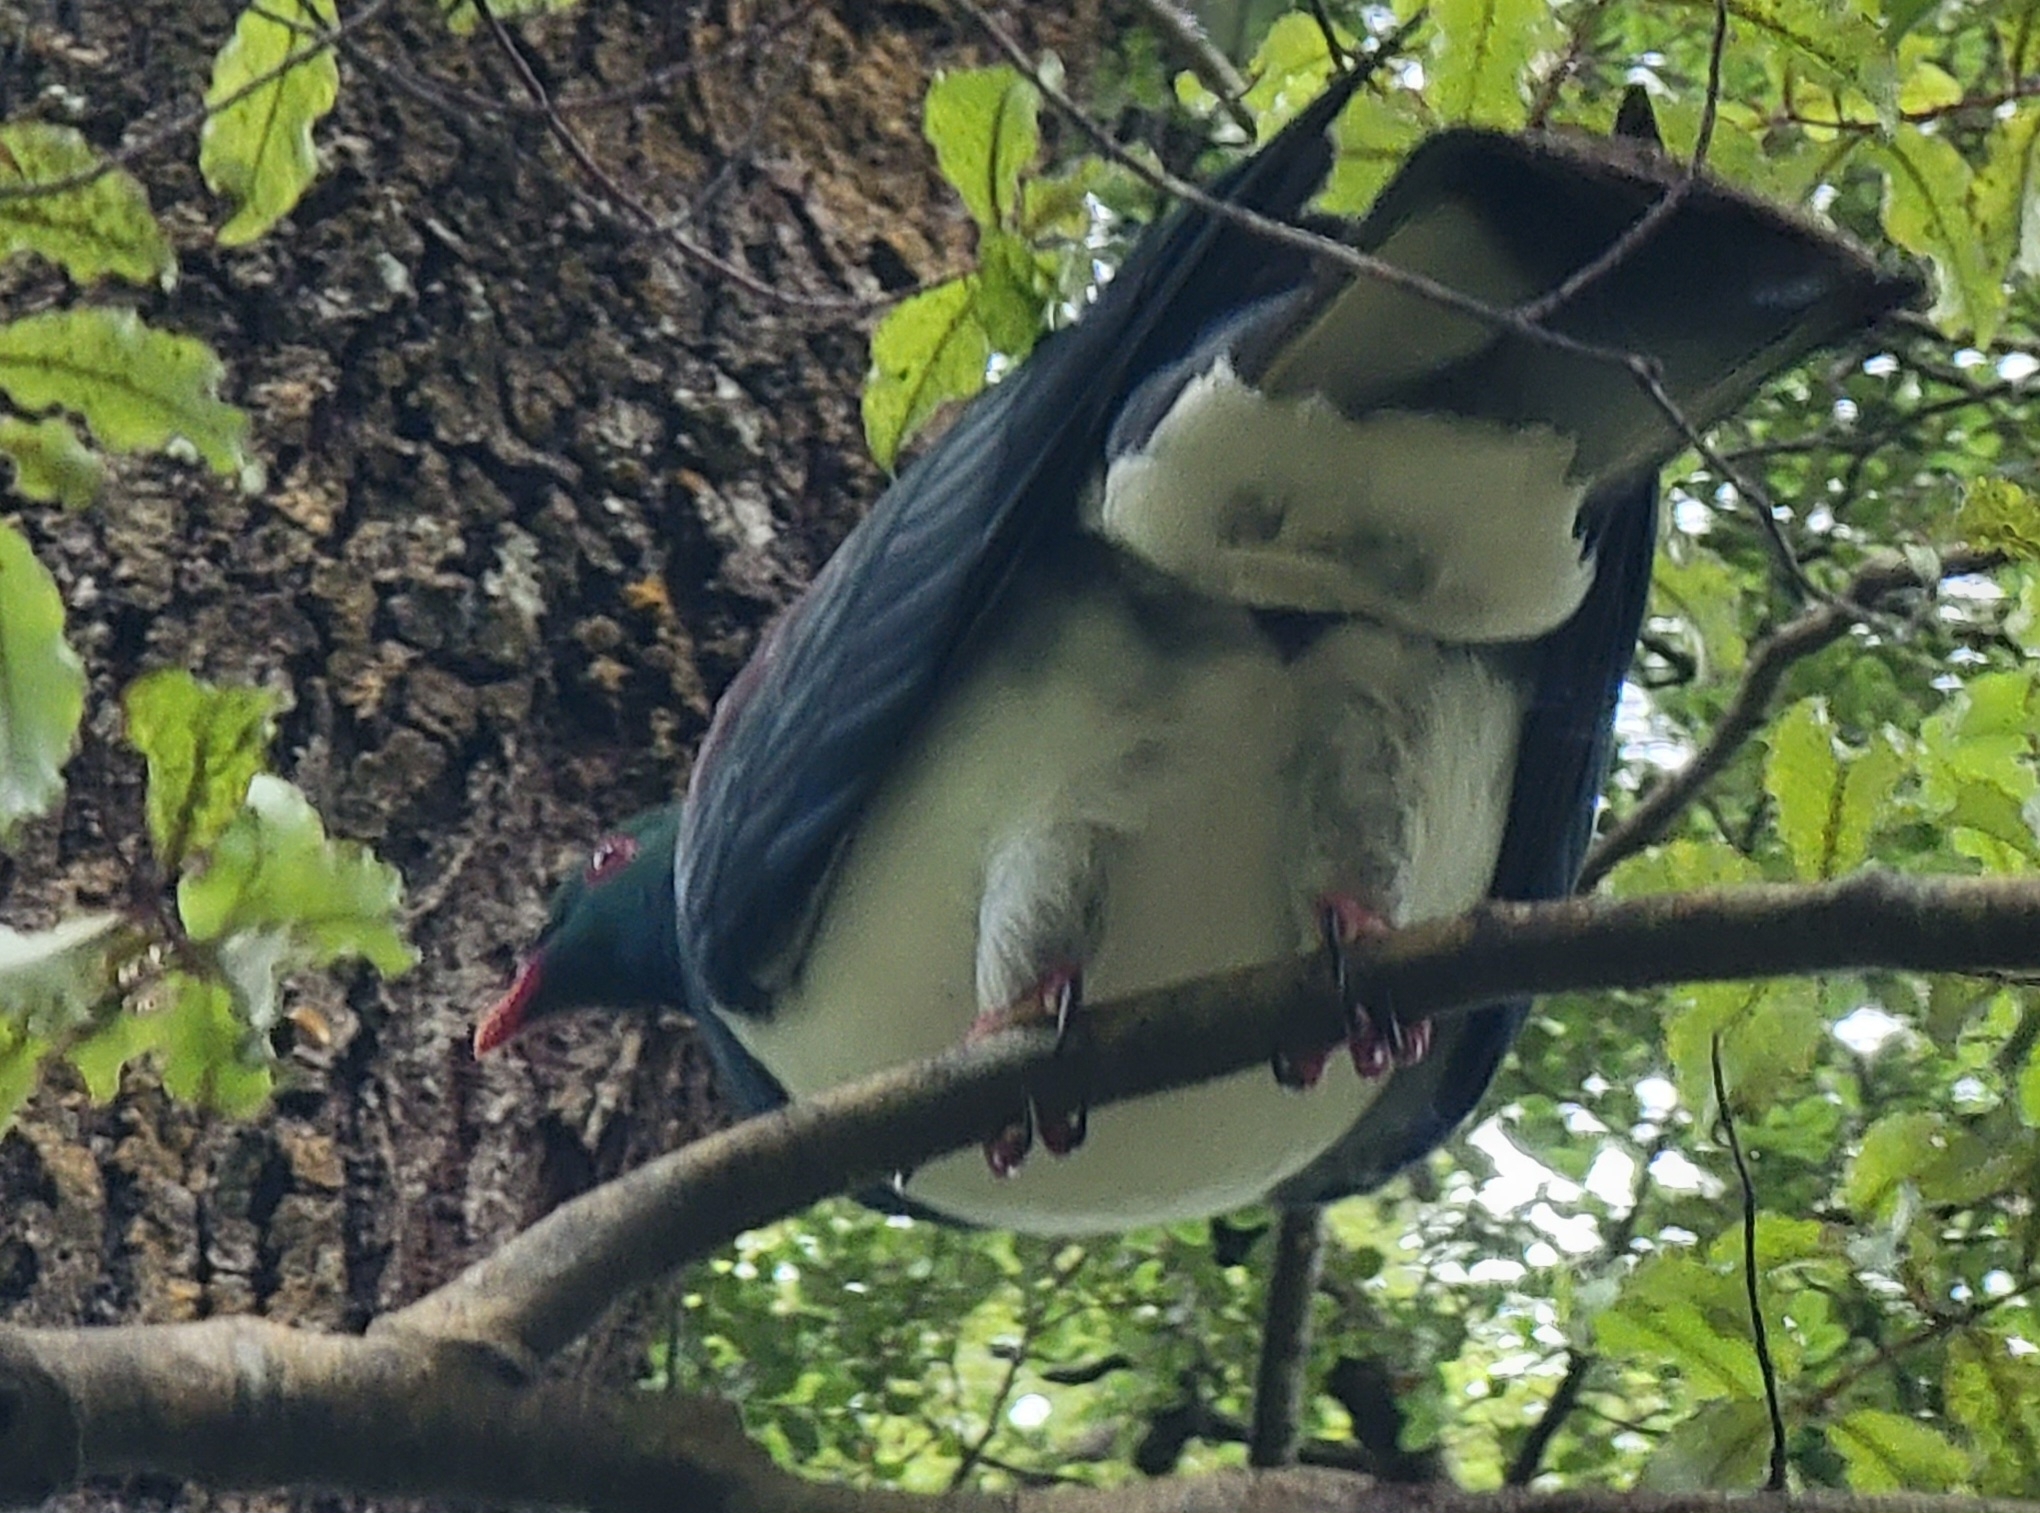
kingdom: Animalia
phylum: Chordata
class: Aves
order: Columbiformes
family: Columbidae
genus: Hemiphaga
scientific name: Hemiphaga novaeseelandiae
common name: New zealand pigeon
